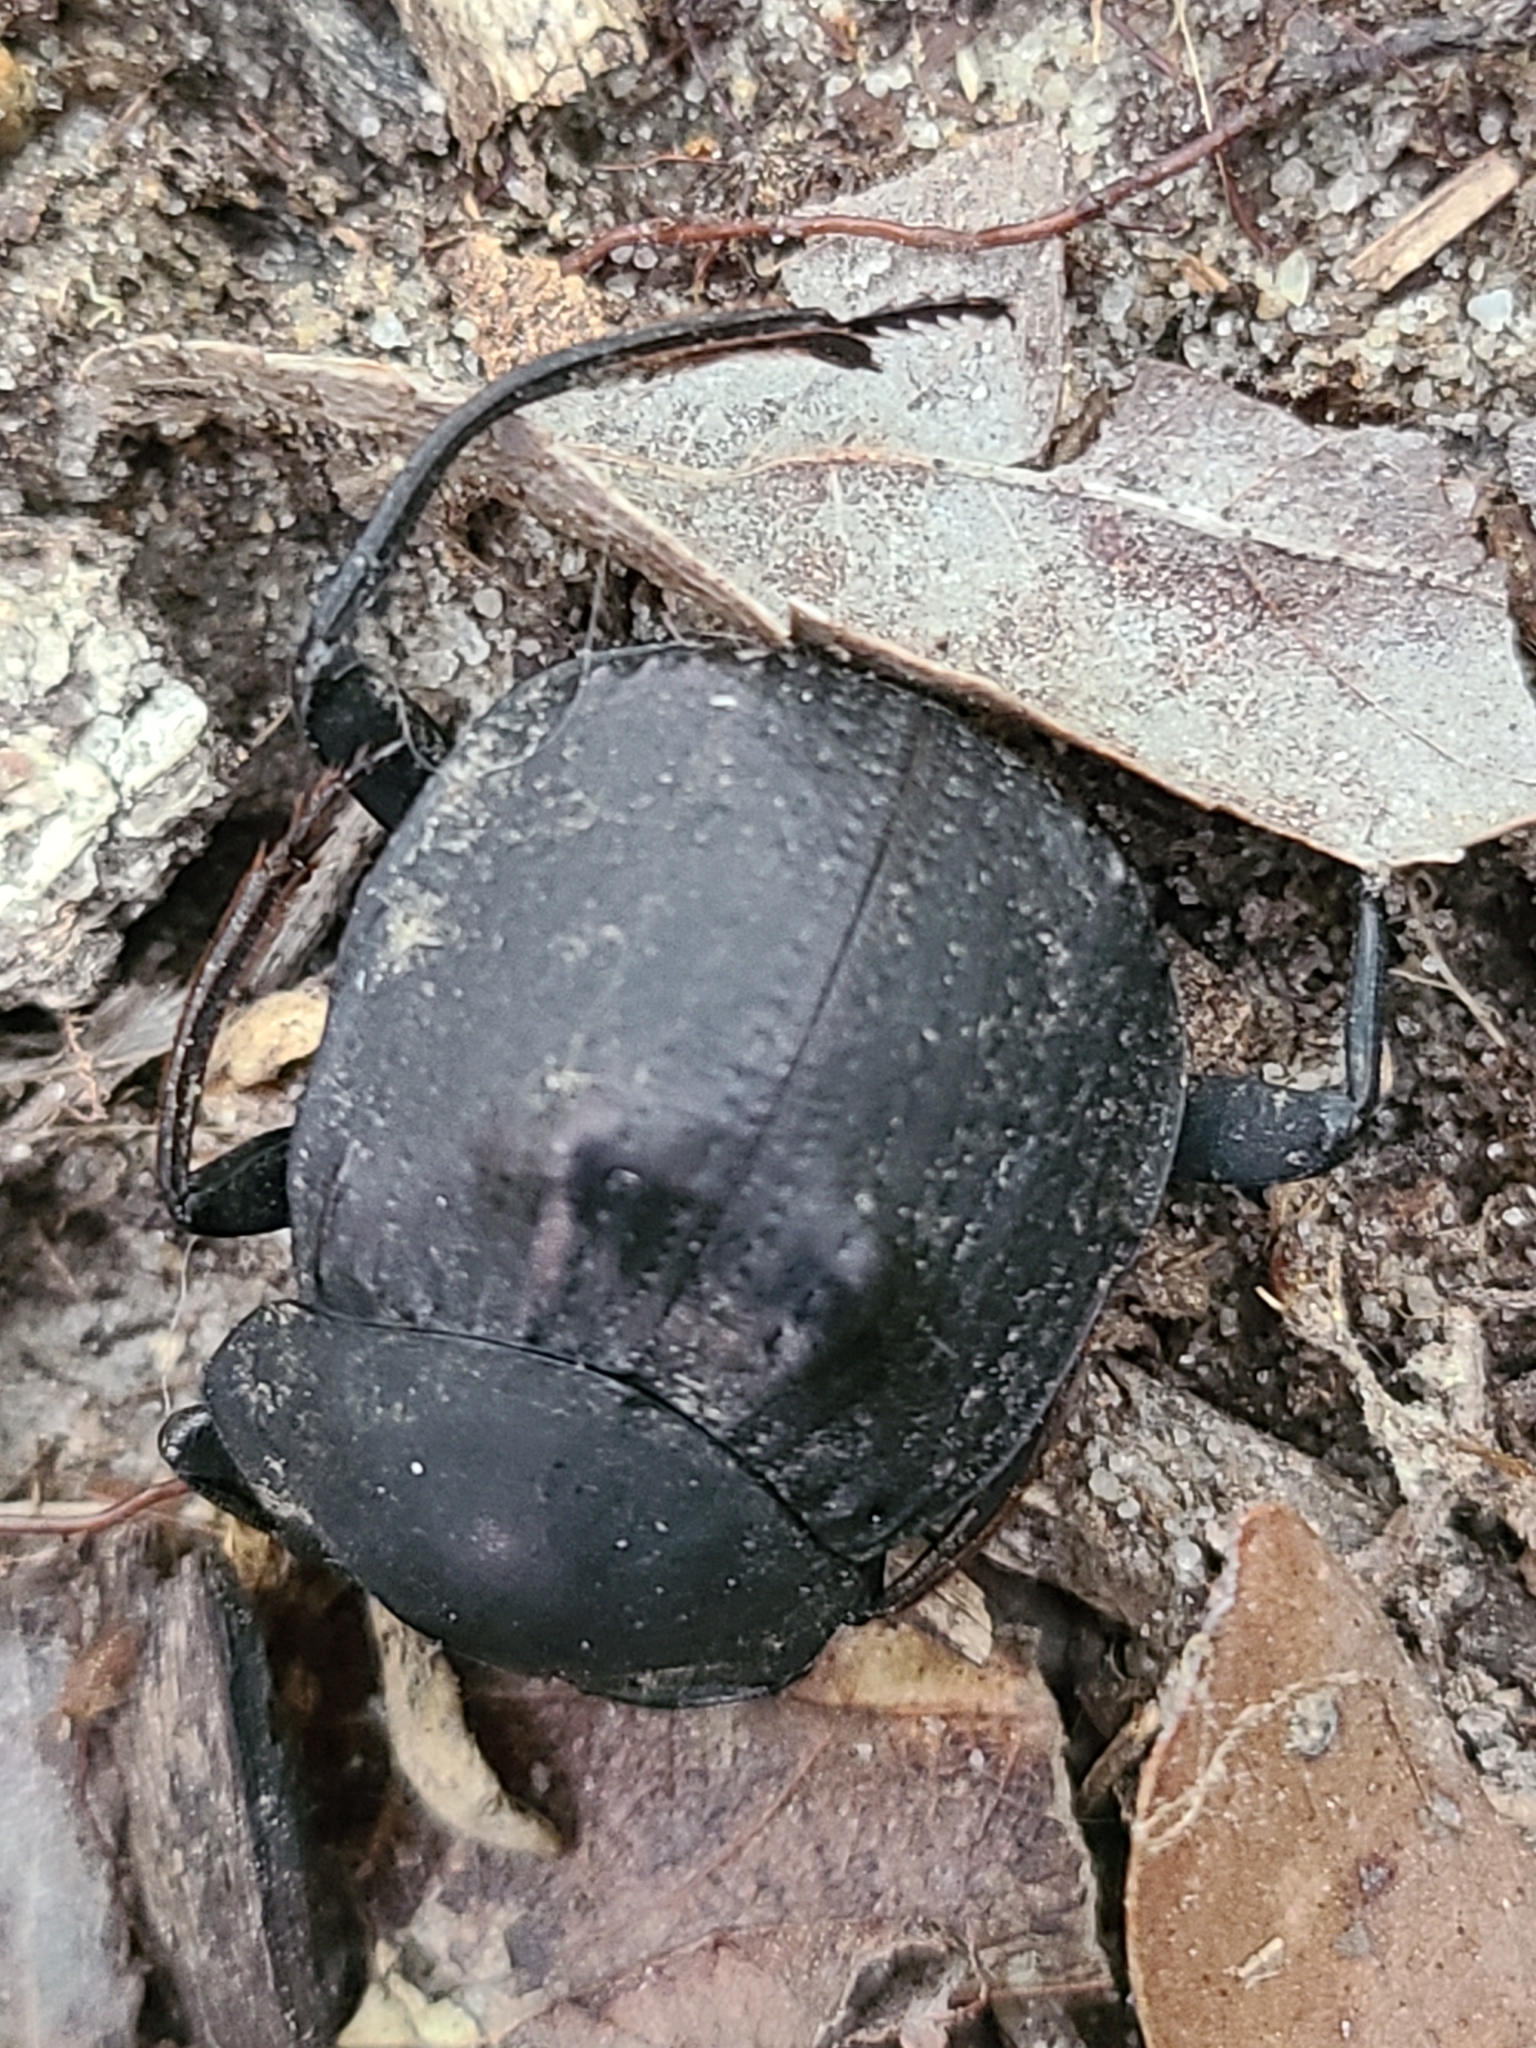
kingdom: Animalia
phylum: Arthropoda
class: Insecta
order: Coleoptera
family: Scarabaeidae
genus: Deltochilum
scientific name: Deltochilum gibbosum
